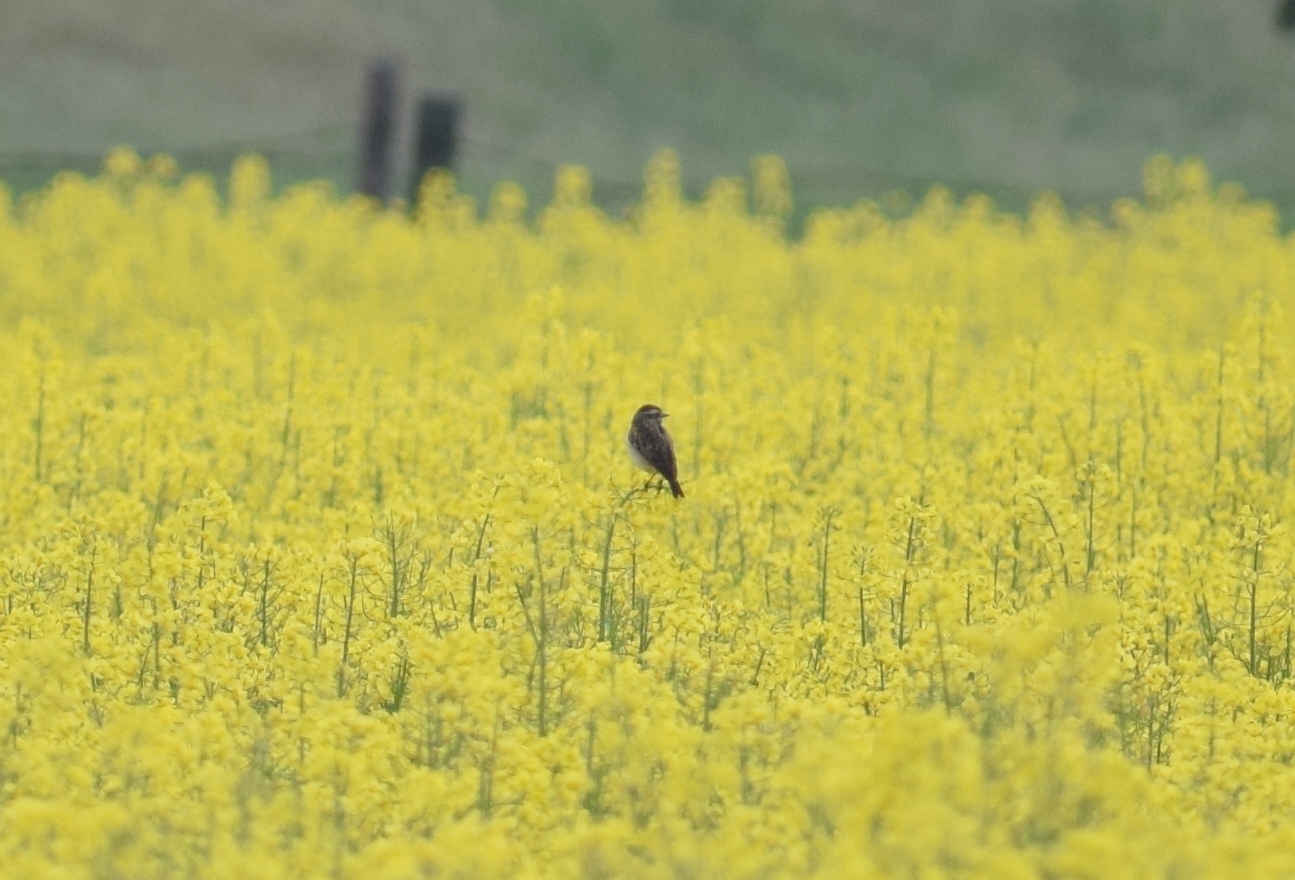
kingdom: Animalia
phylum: Chordata
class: Aves
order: Passeriformes
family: Muscicapidae
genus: Saxicola
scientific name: Saxicola rubetra
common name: Whinchat
